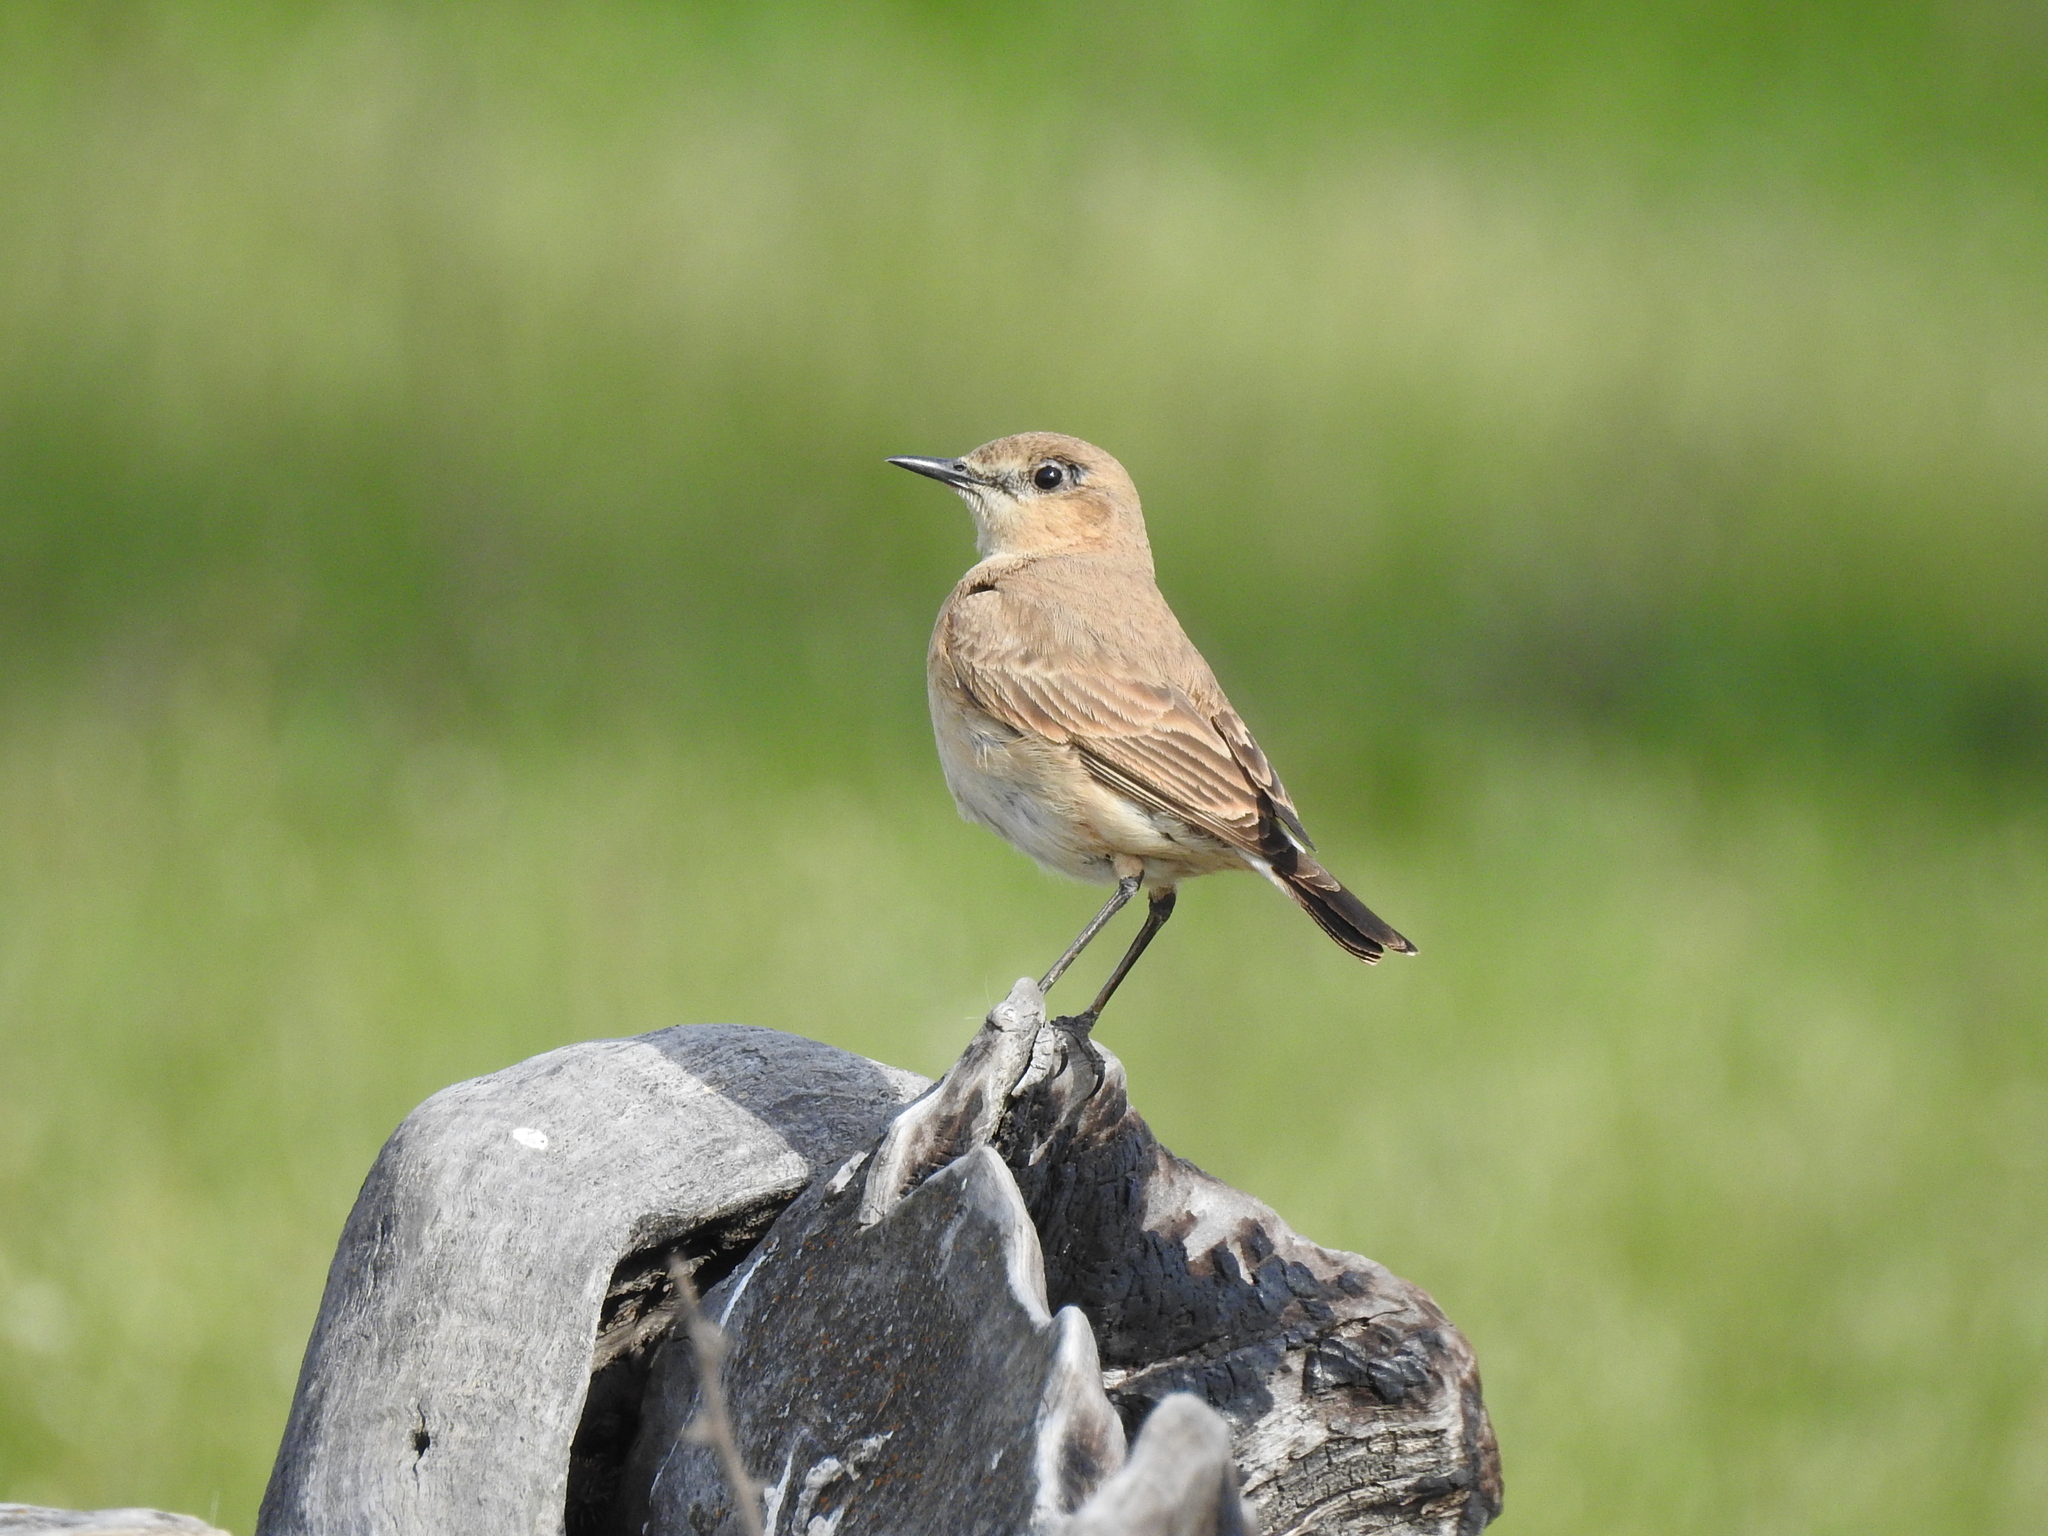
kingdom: Animalia
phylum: Chordata
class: Aves
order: Passeriformes
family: Muscicapidae
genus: Oenanthe
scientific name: Oenanthe isabellina
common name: Isabelline wheatear
